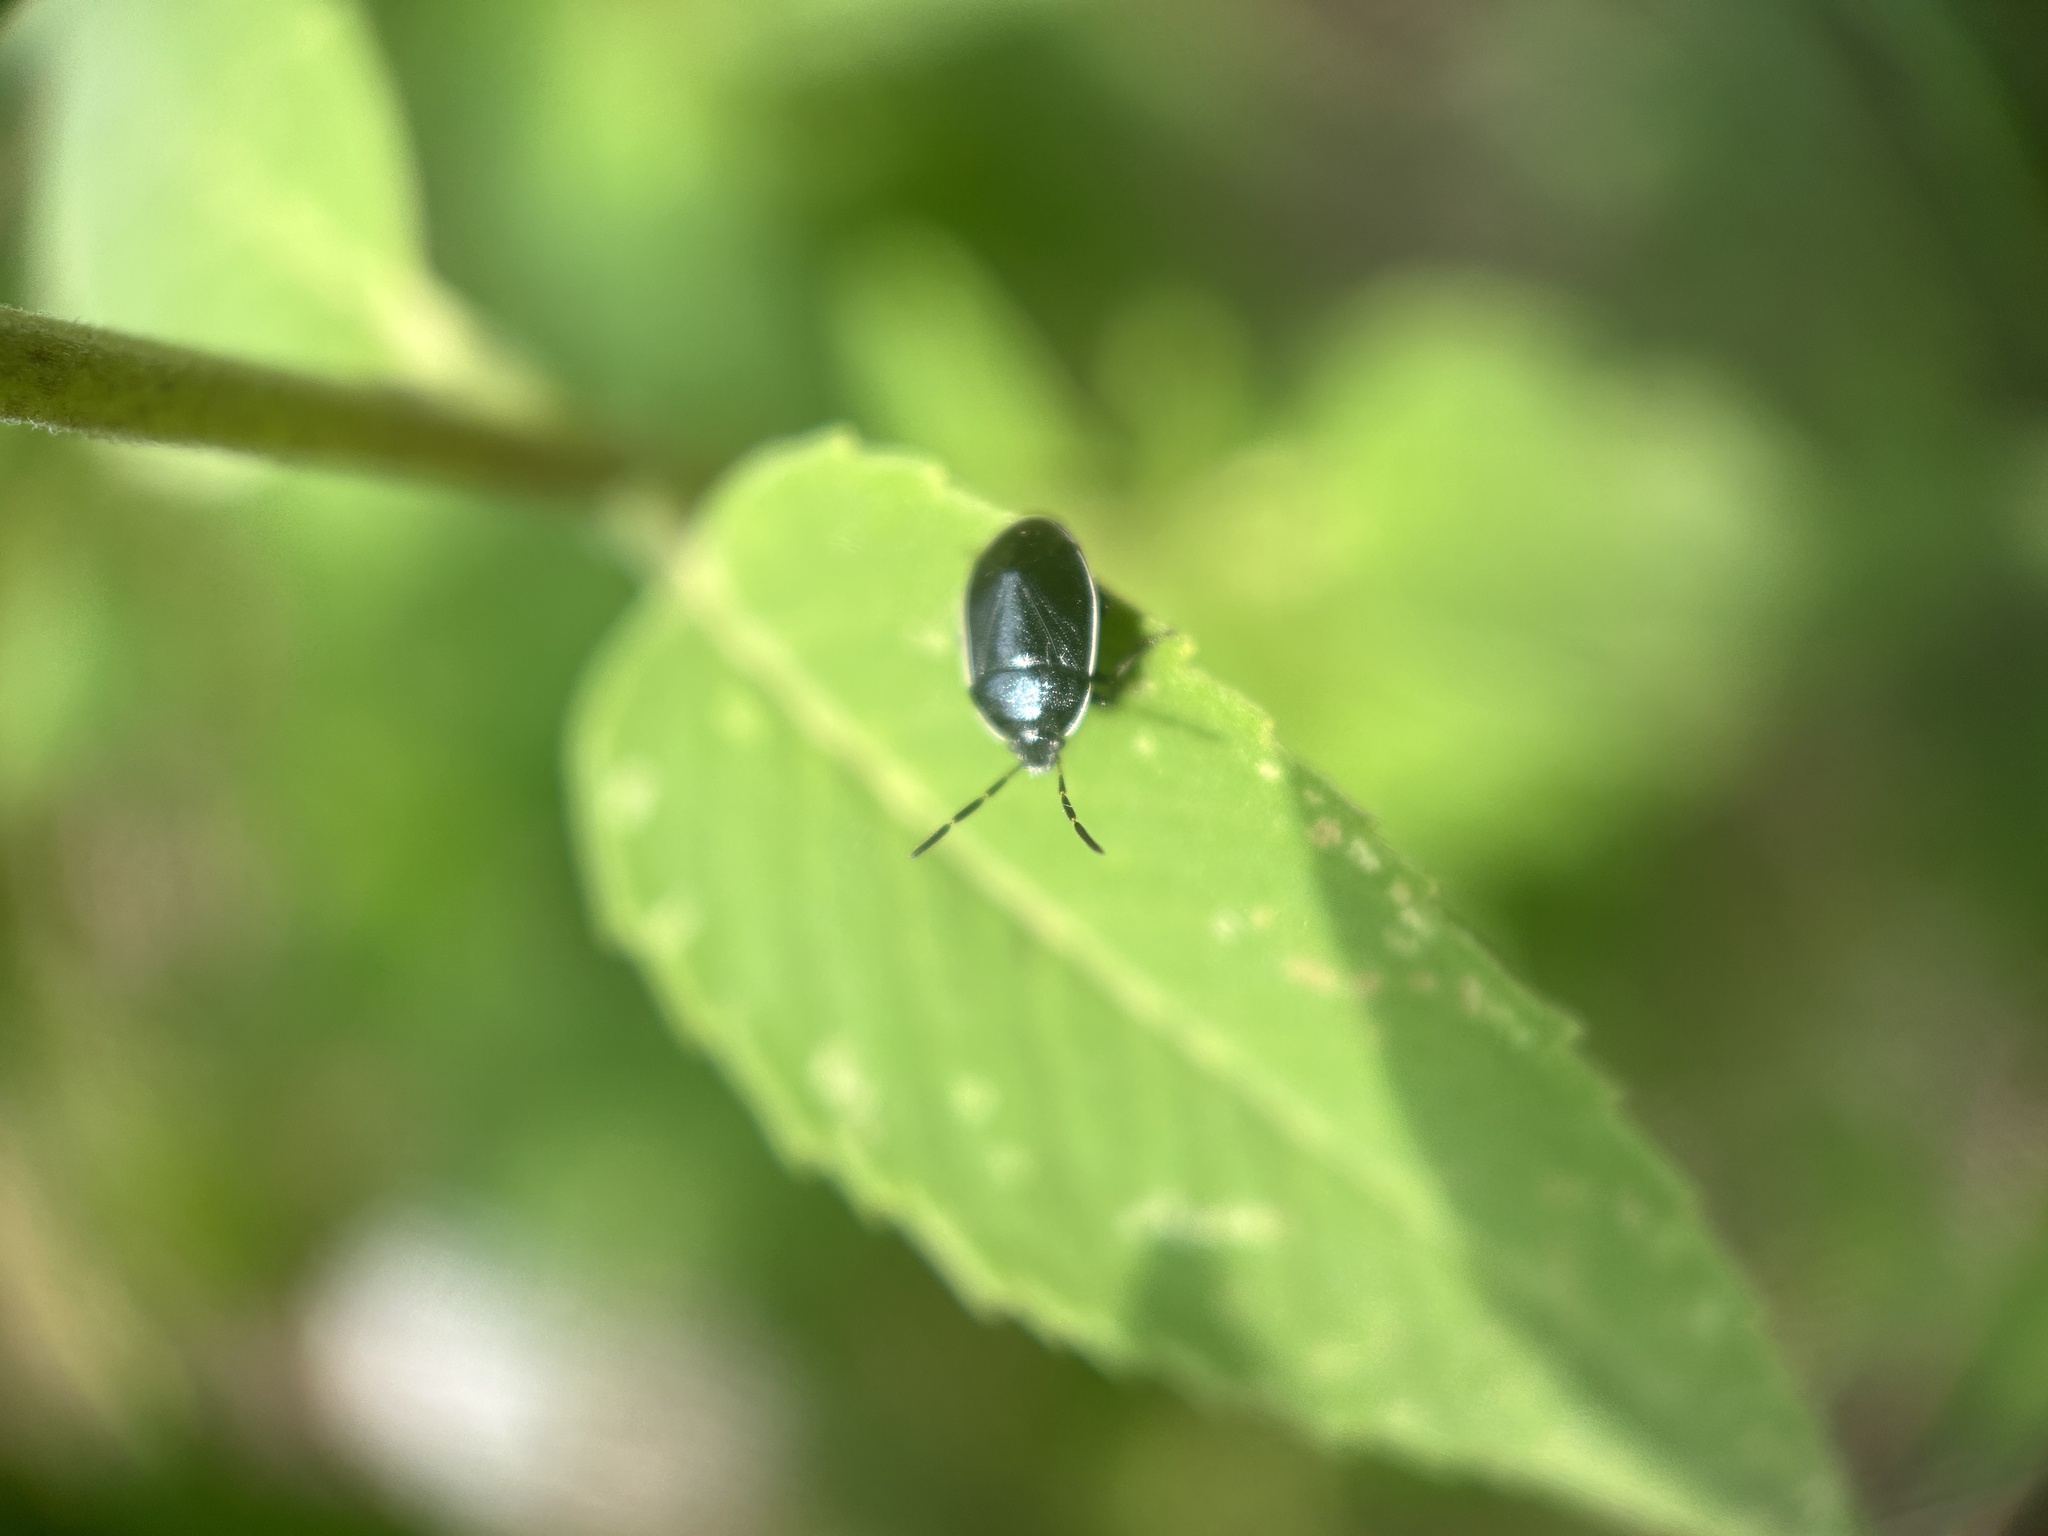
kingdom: Animalia
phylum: Arthropoda
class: Insecta
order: Hemiptera
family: Cydnidae
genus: Sehirus
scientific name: Sehirus cinctus
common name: White-margined burrower bug
